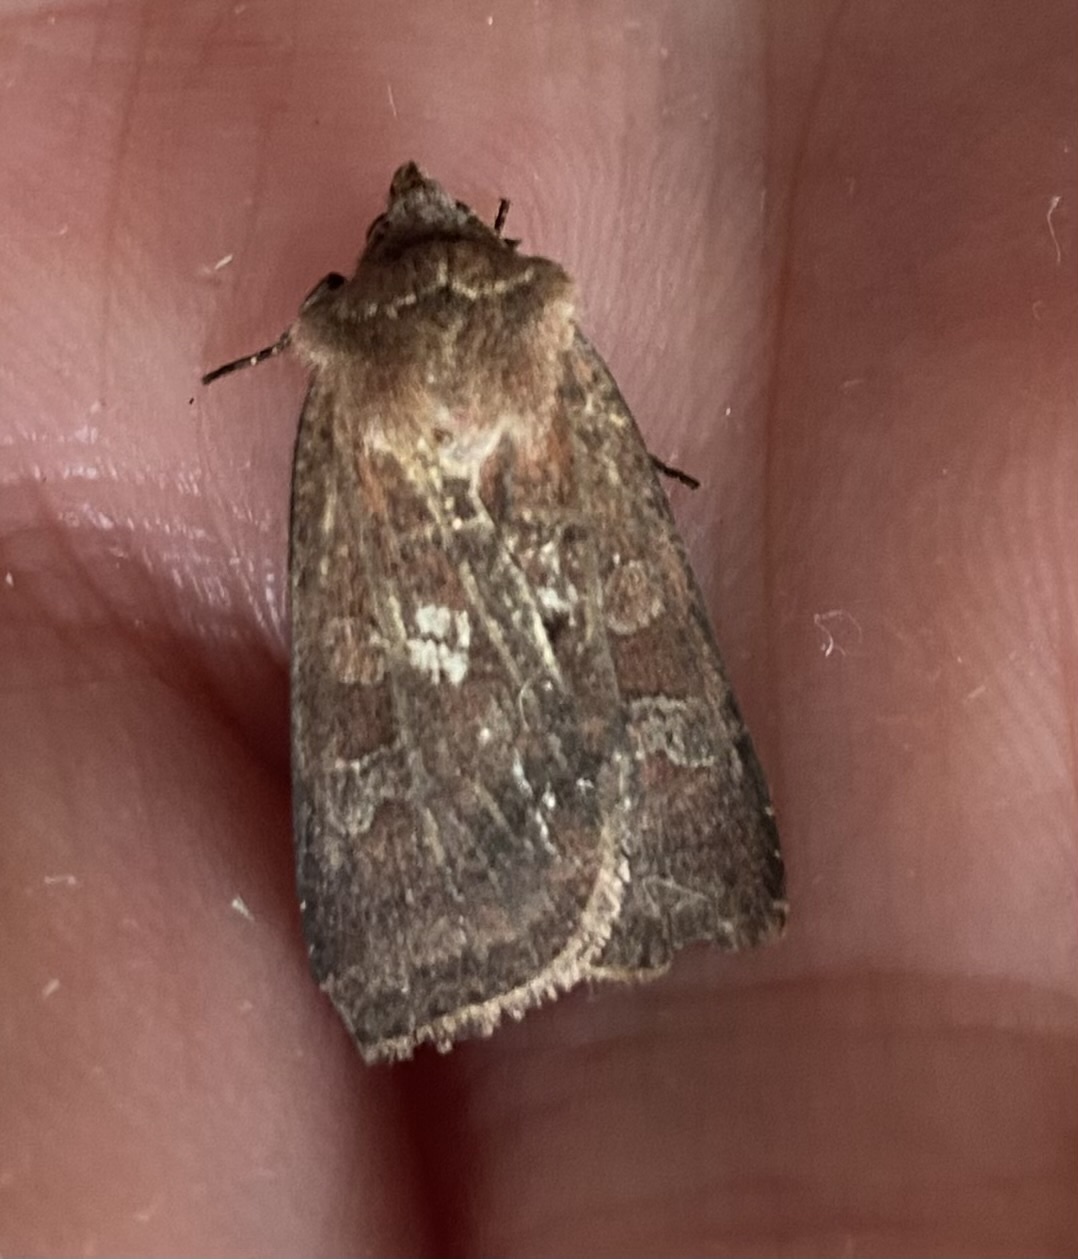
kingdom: Animalia
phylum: Arthropoda
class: Insecta
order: Lepidoptera
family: Noctuidae
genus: Diarsia
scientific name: Diarsia rubi
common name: Small square-spot
